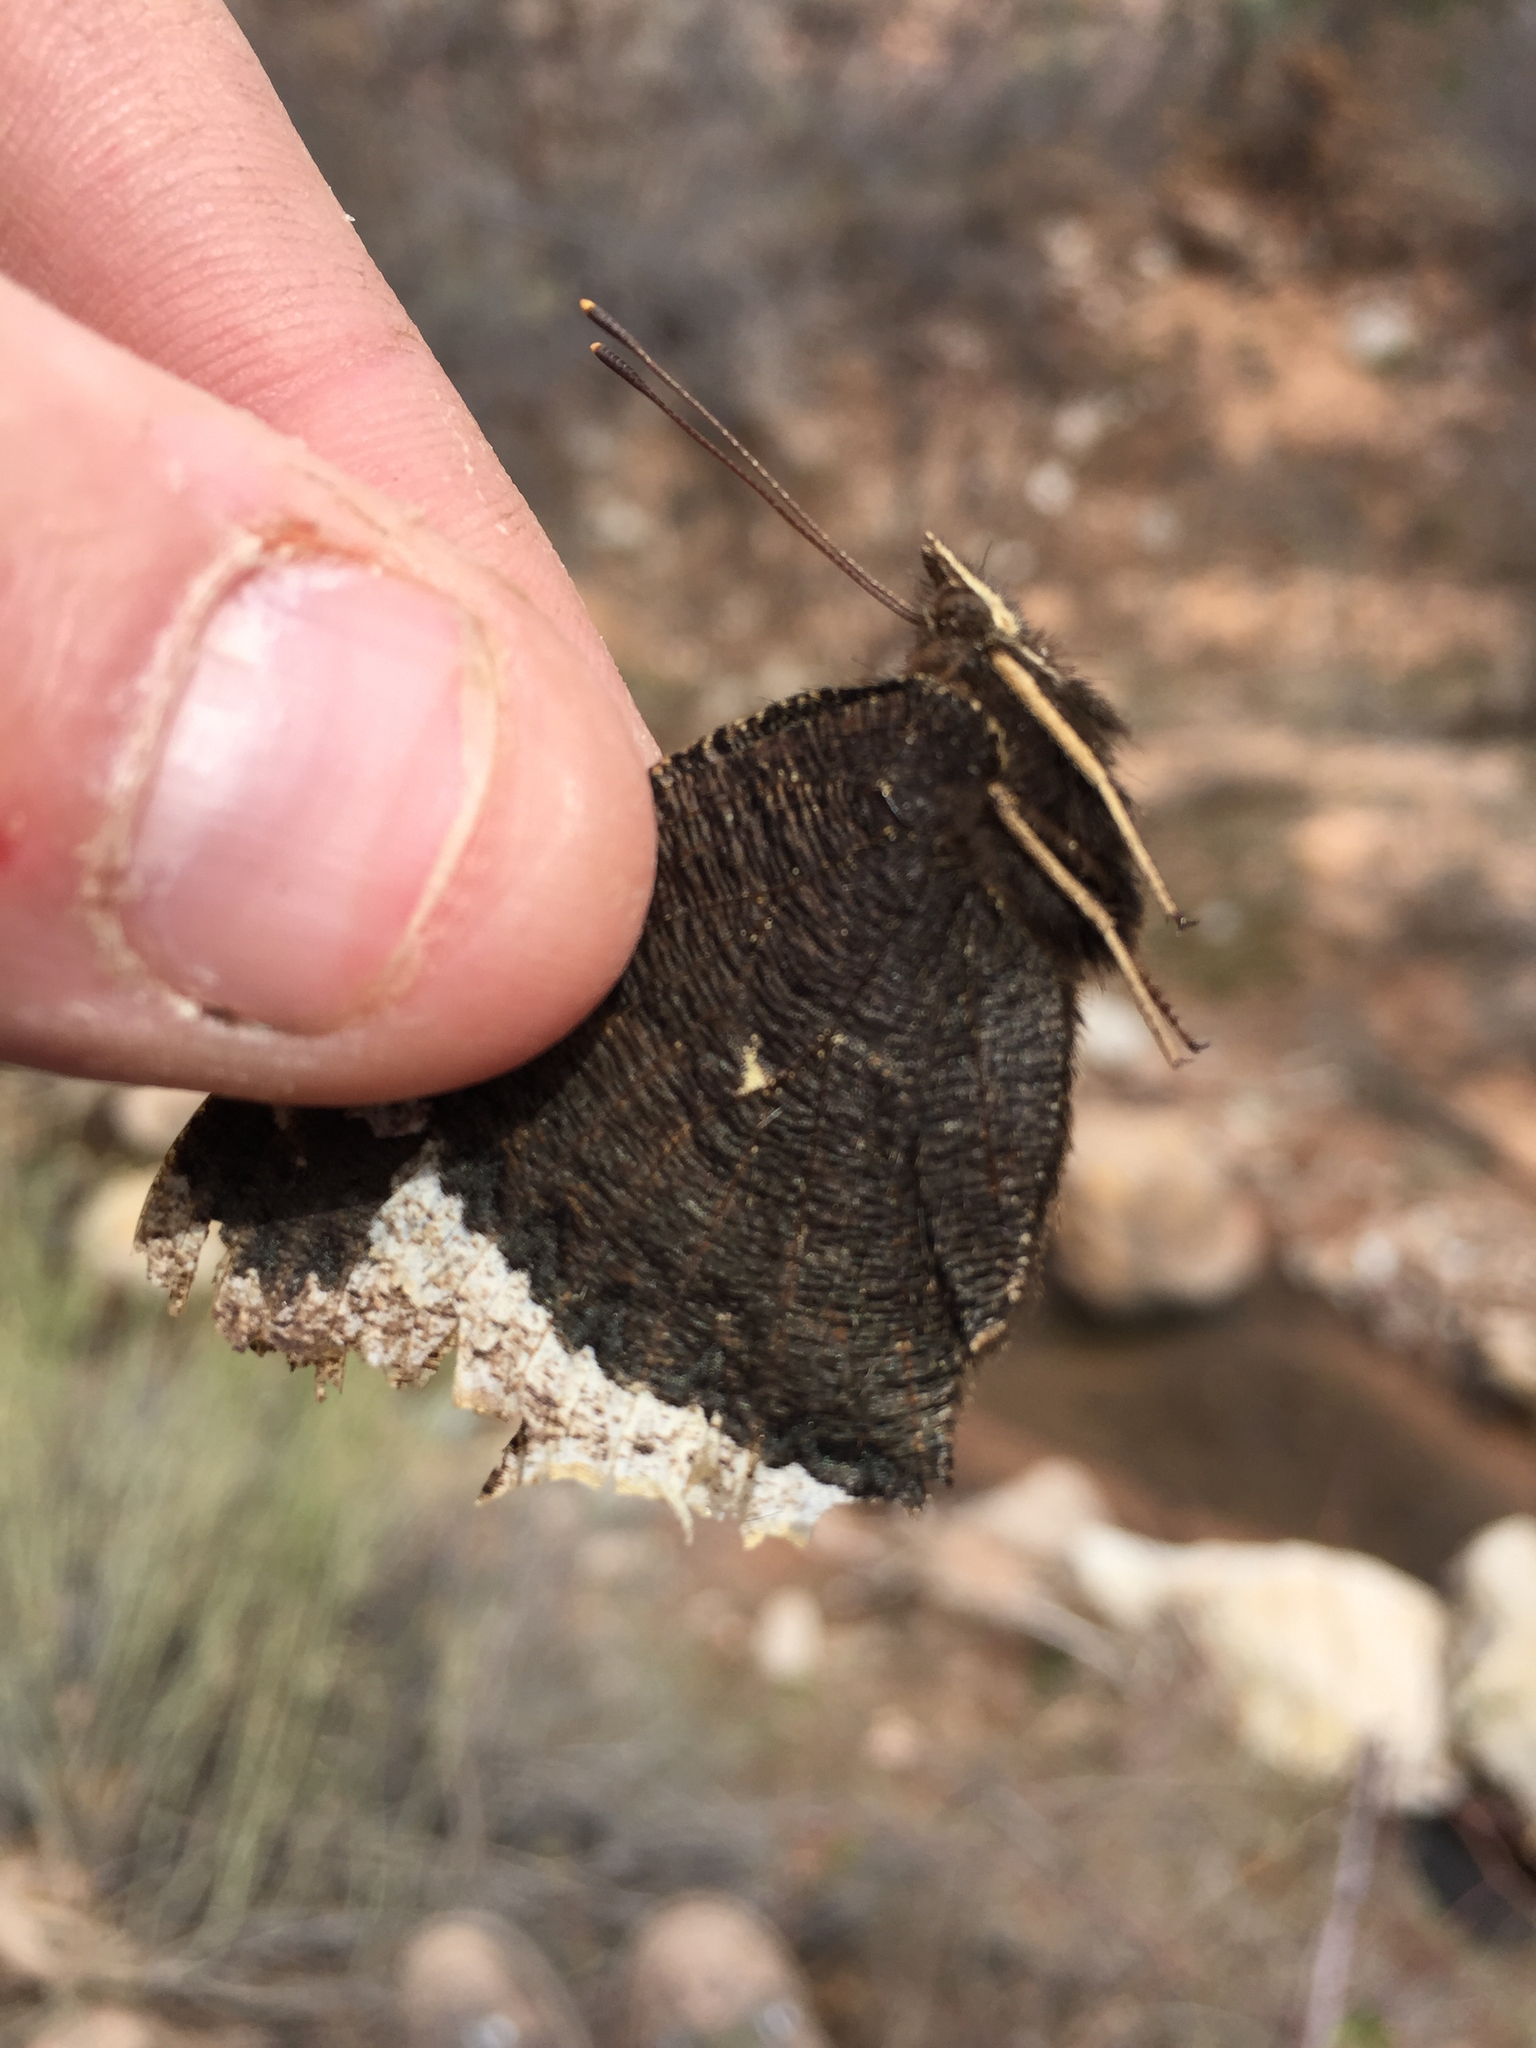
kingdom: Animalia
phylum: Arthropoda
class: Insecta
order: Lepidoptera
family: Nymphalidae
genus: Nymphalis
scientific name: Nymphalis antiopa
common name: Camberwell beauty
